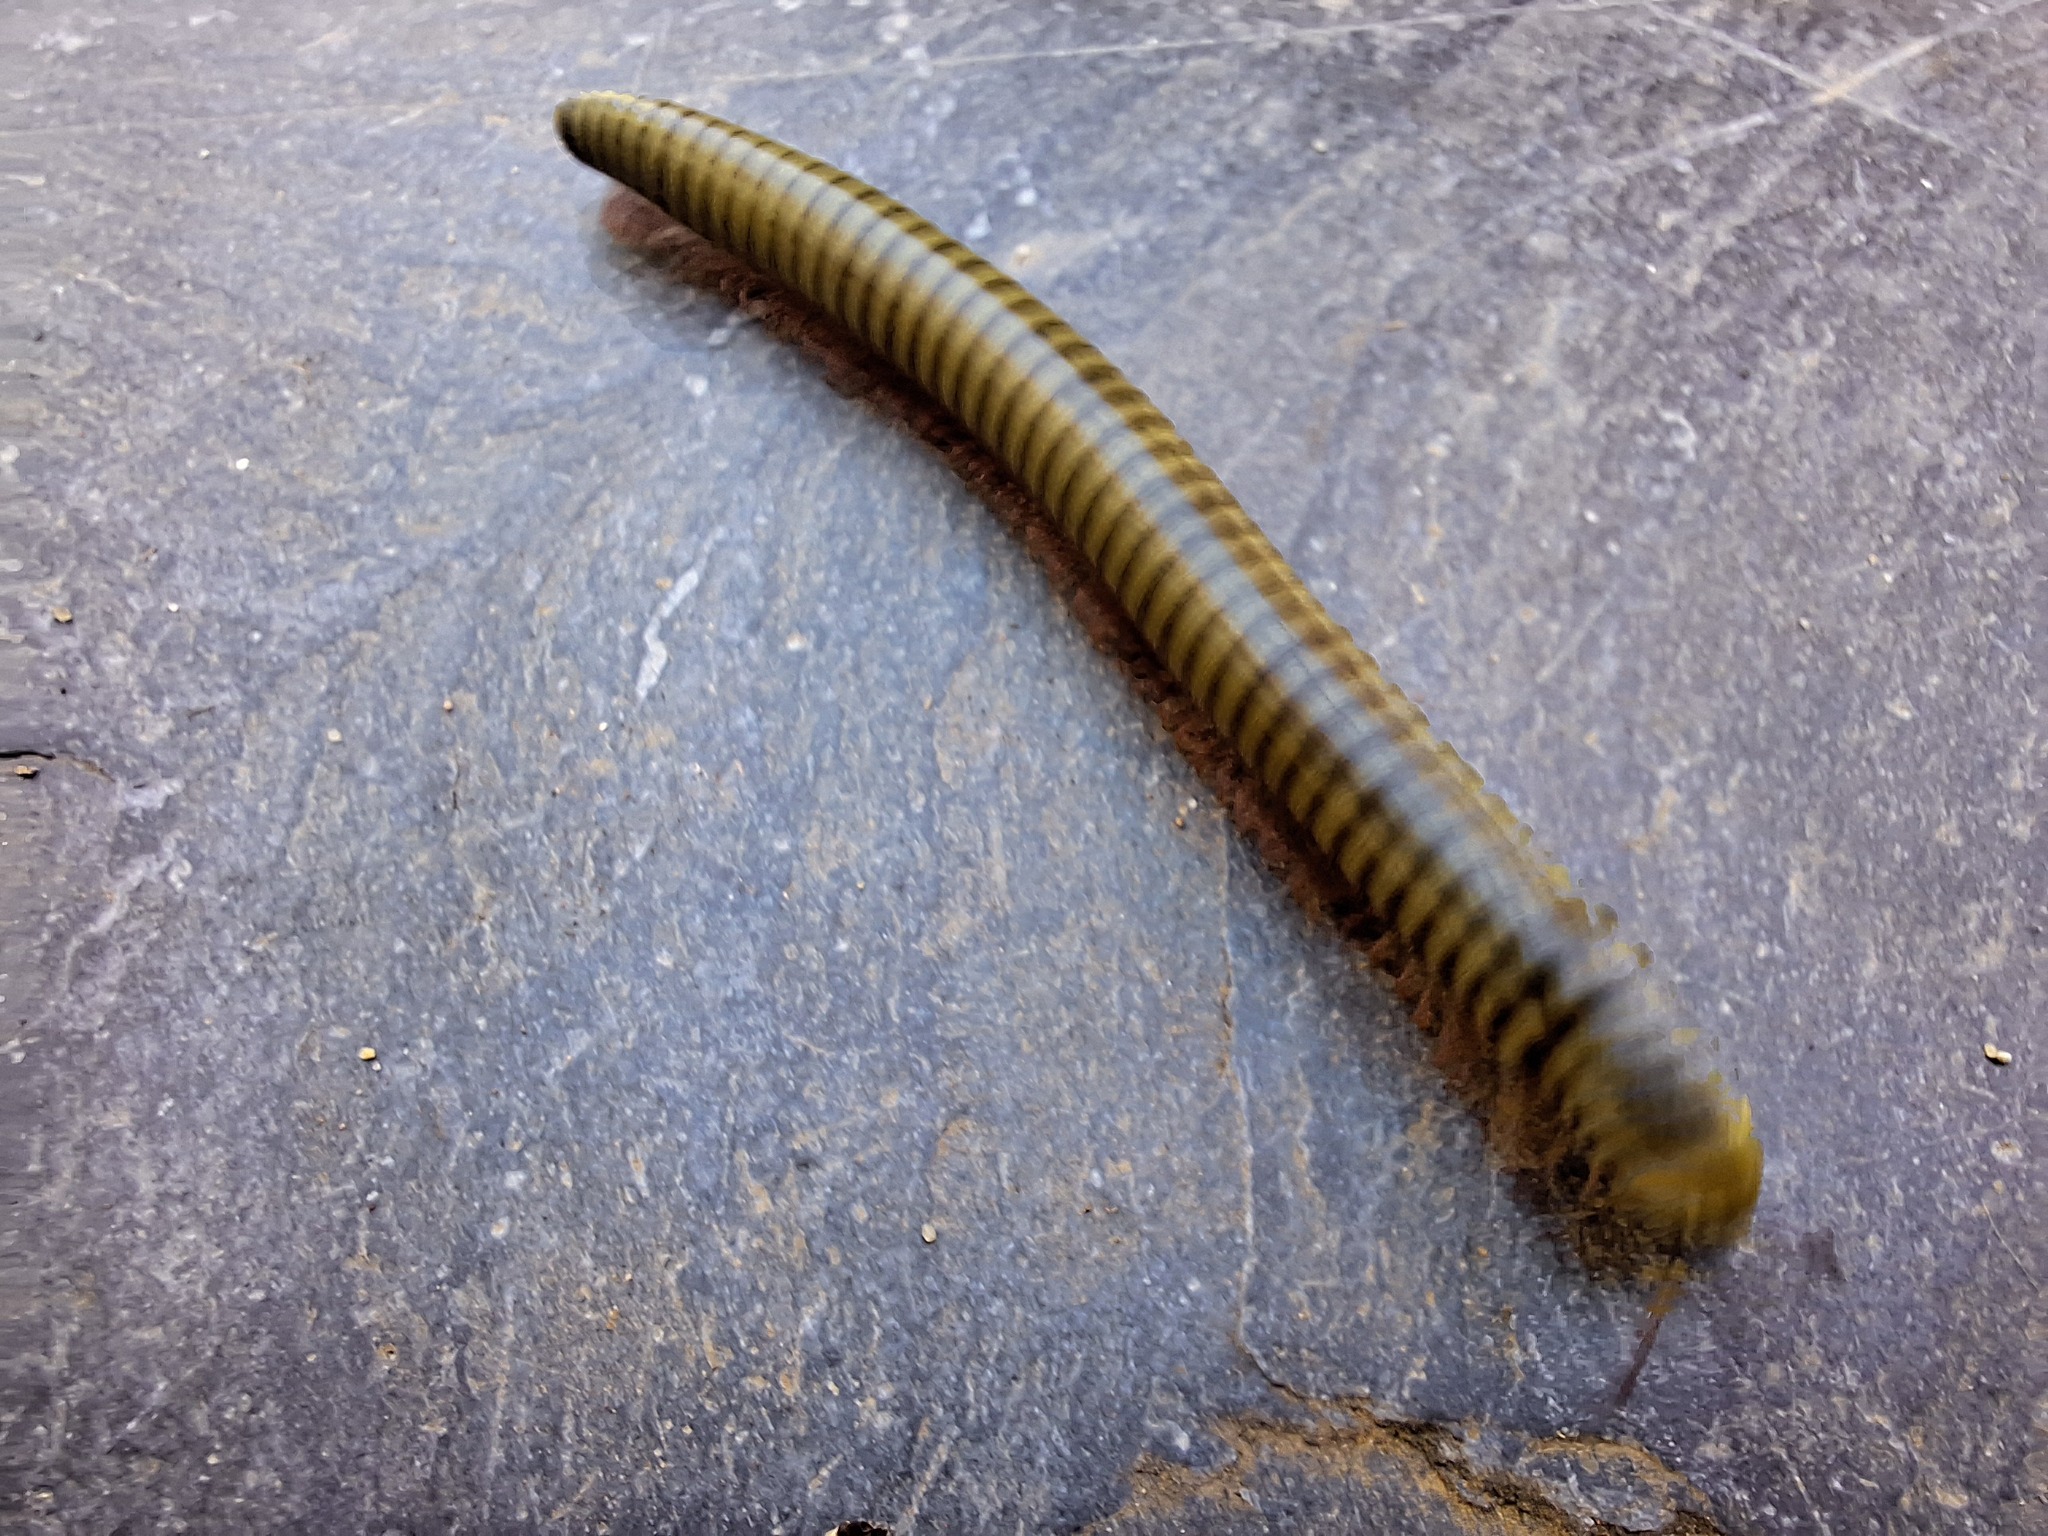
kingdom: Animalia
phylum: Arthropoda
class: Diplopoda
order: Julida
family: Julidae
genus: Ommatoiulus
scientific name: Ommatoiulus lusitanus
